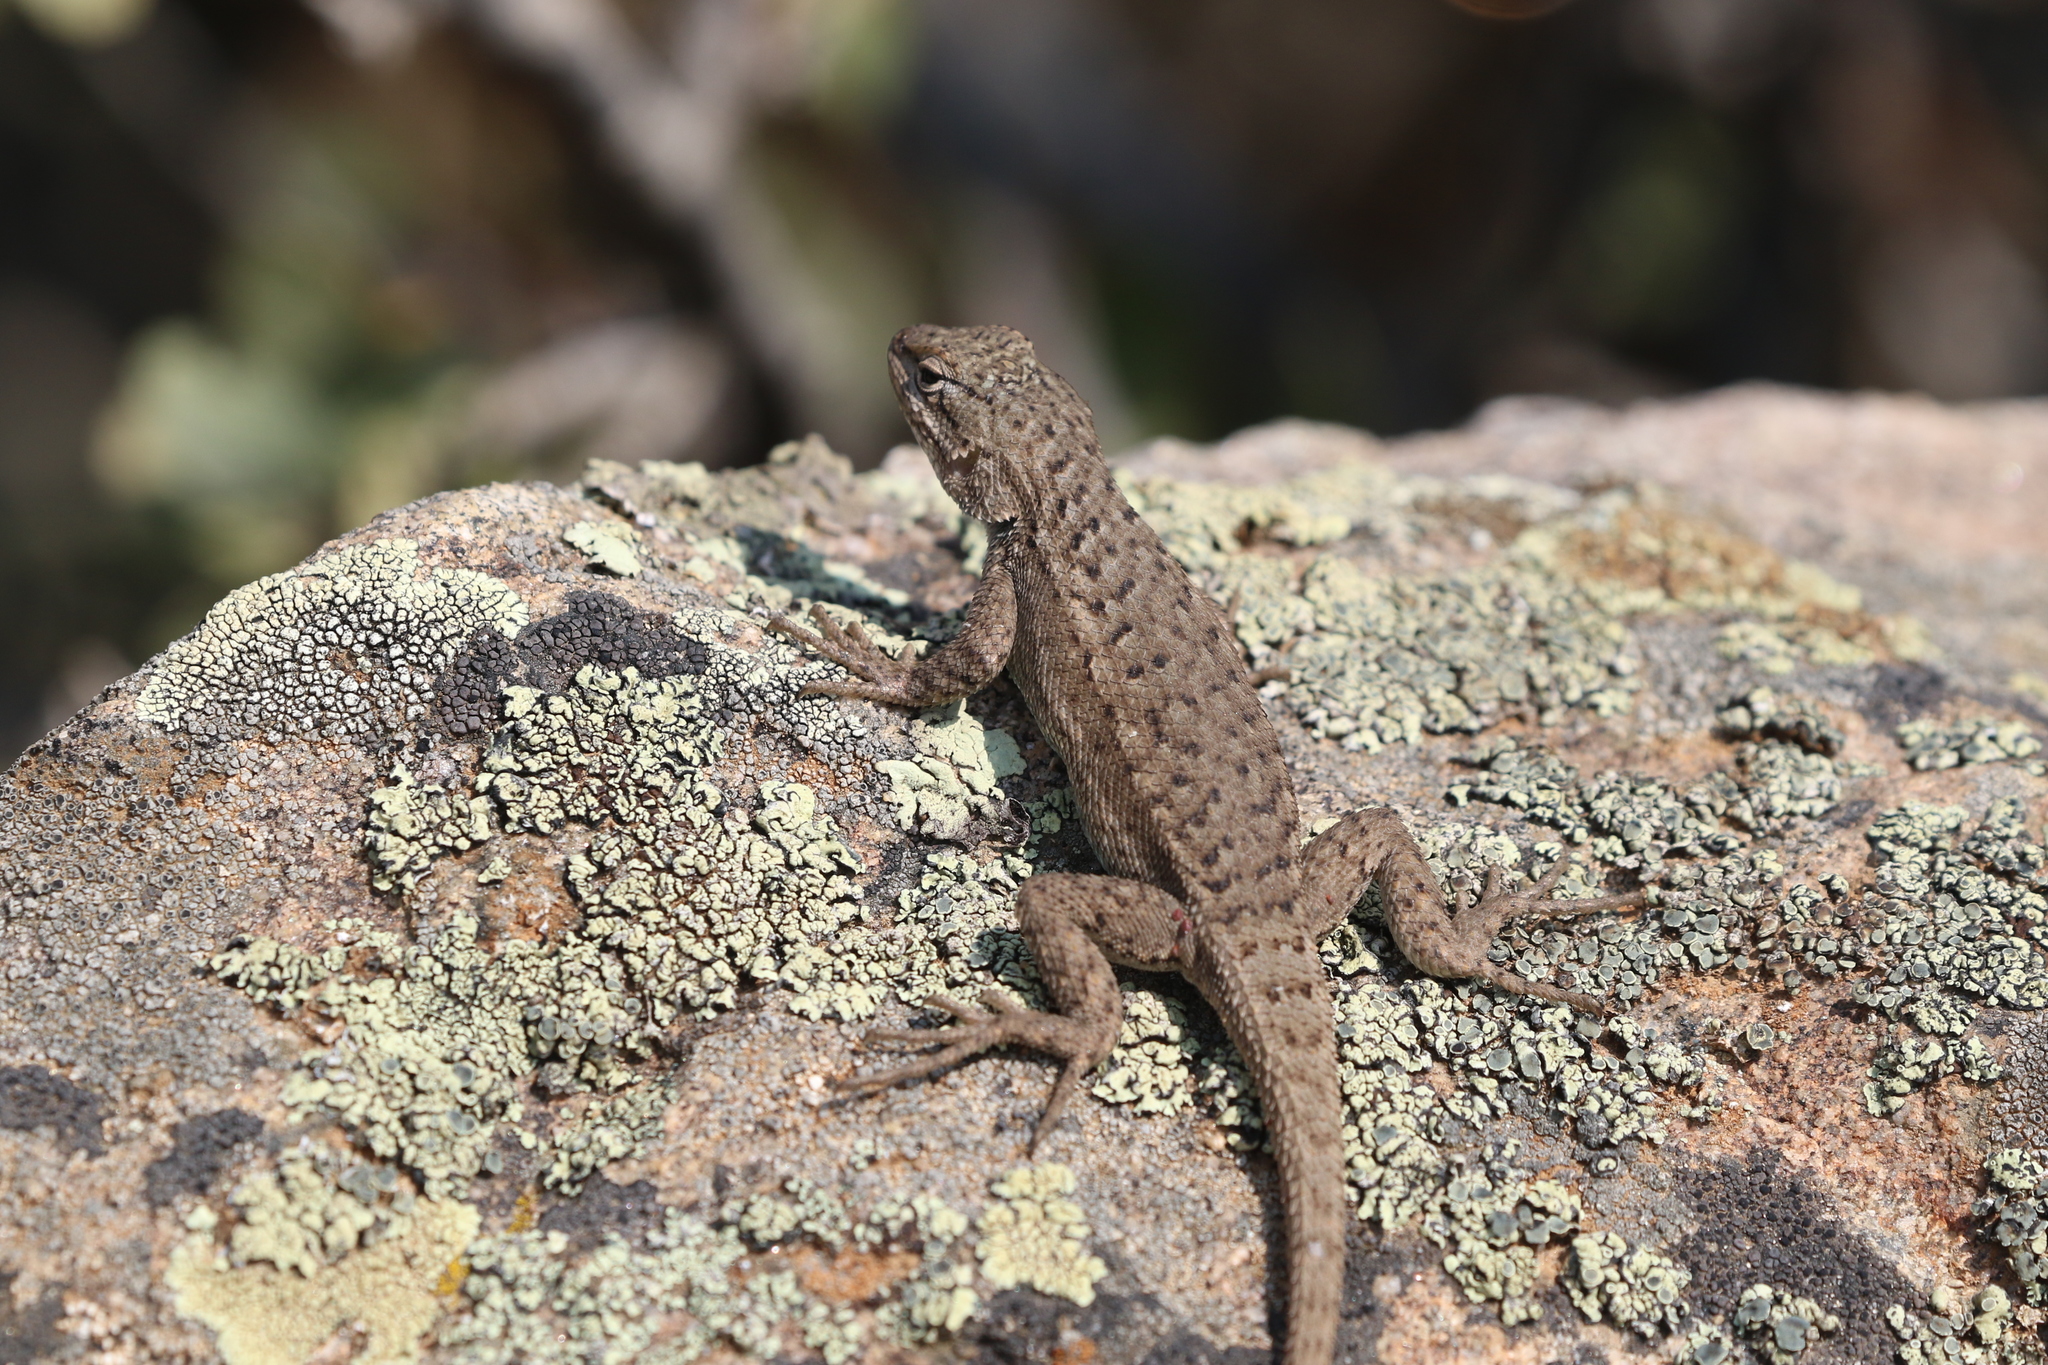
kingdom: Animalia
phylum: Chordata
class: Squamata
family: Phrynosomatidae
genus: Sceloporus
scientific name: Sceloporus tristichus
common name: Plateau fence lizard
